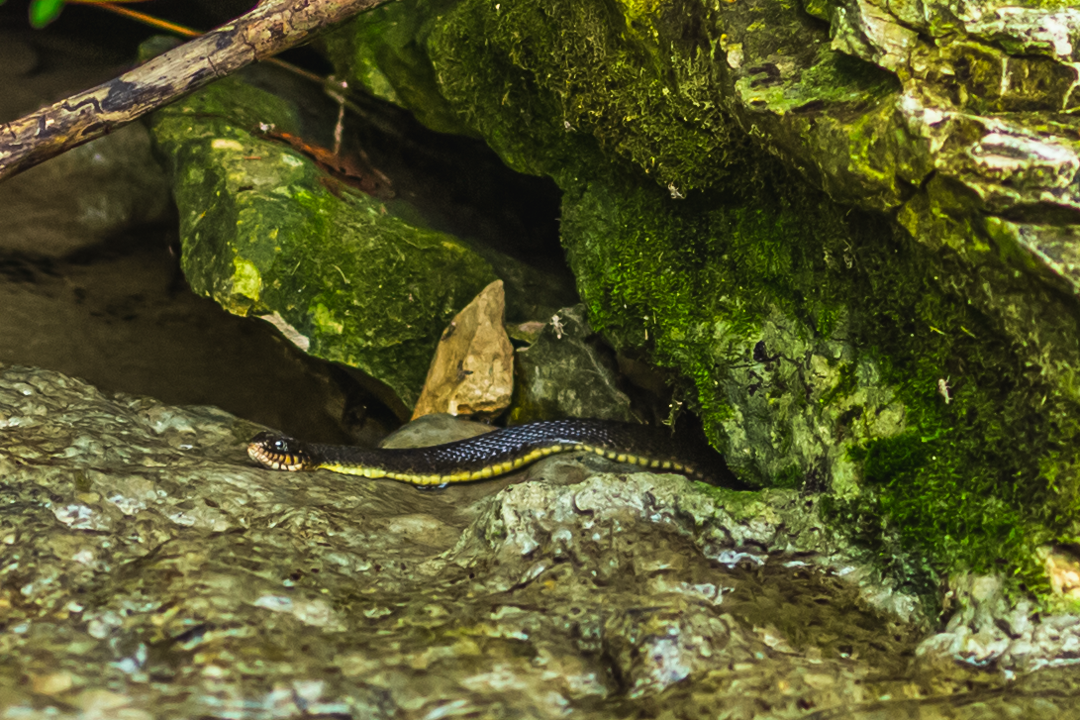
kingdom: Animalia
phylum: Chordata
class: Squamata
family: Colubridae
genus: Nerodia
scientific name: Nerodia erythrogaster
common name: Plainbelly water snake
